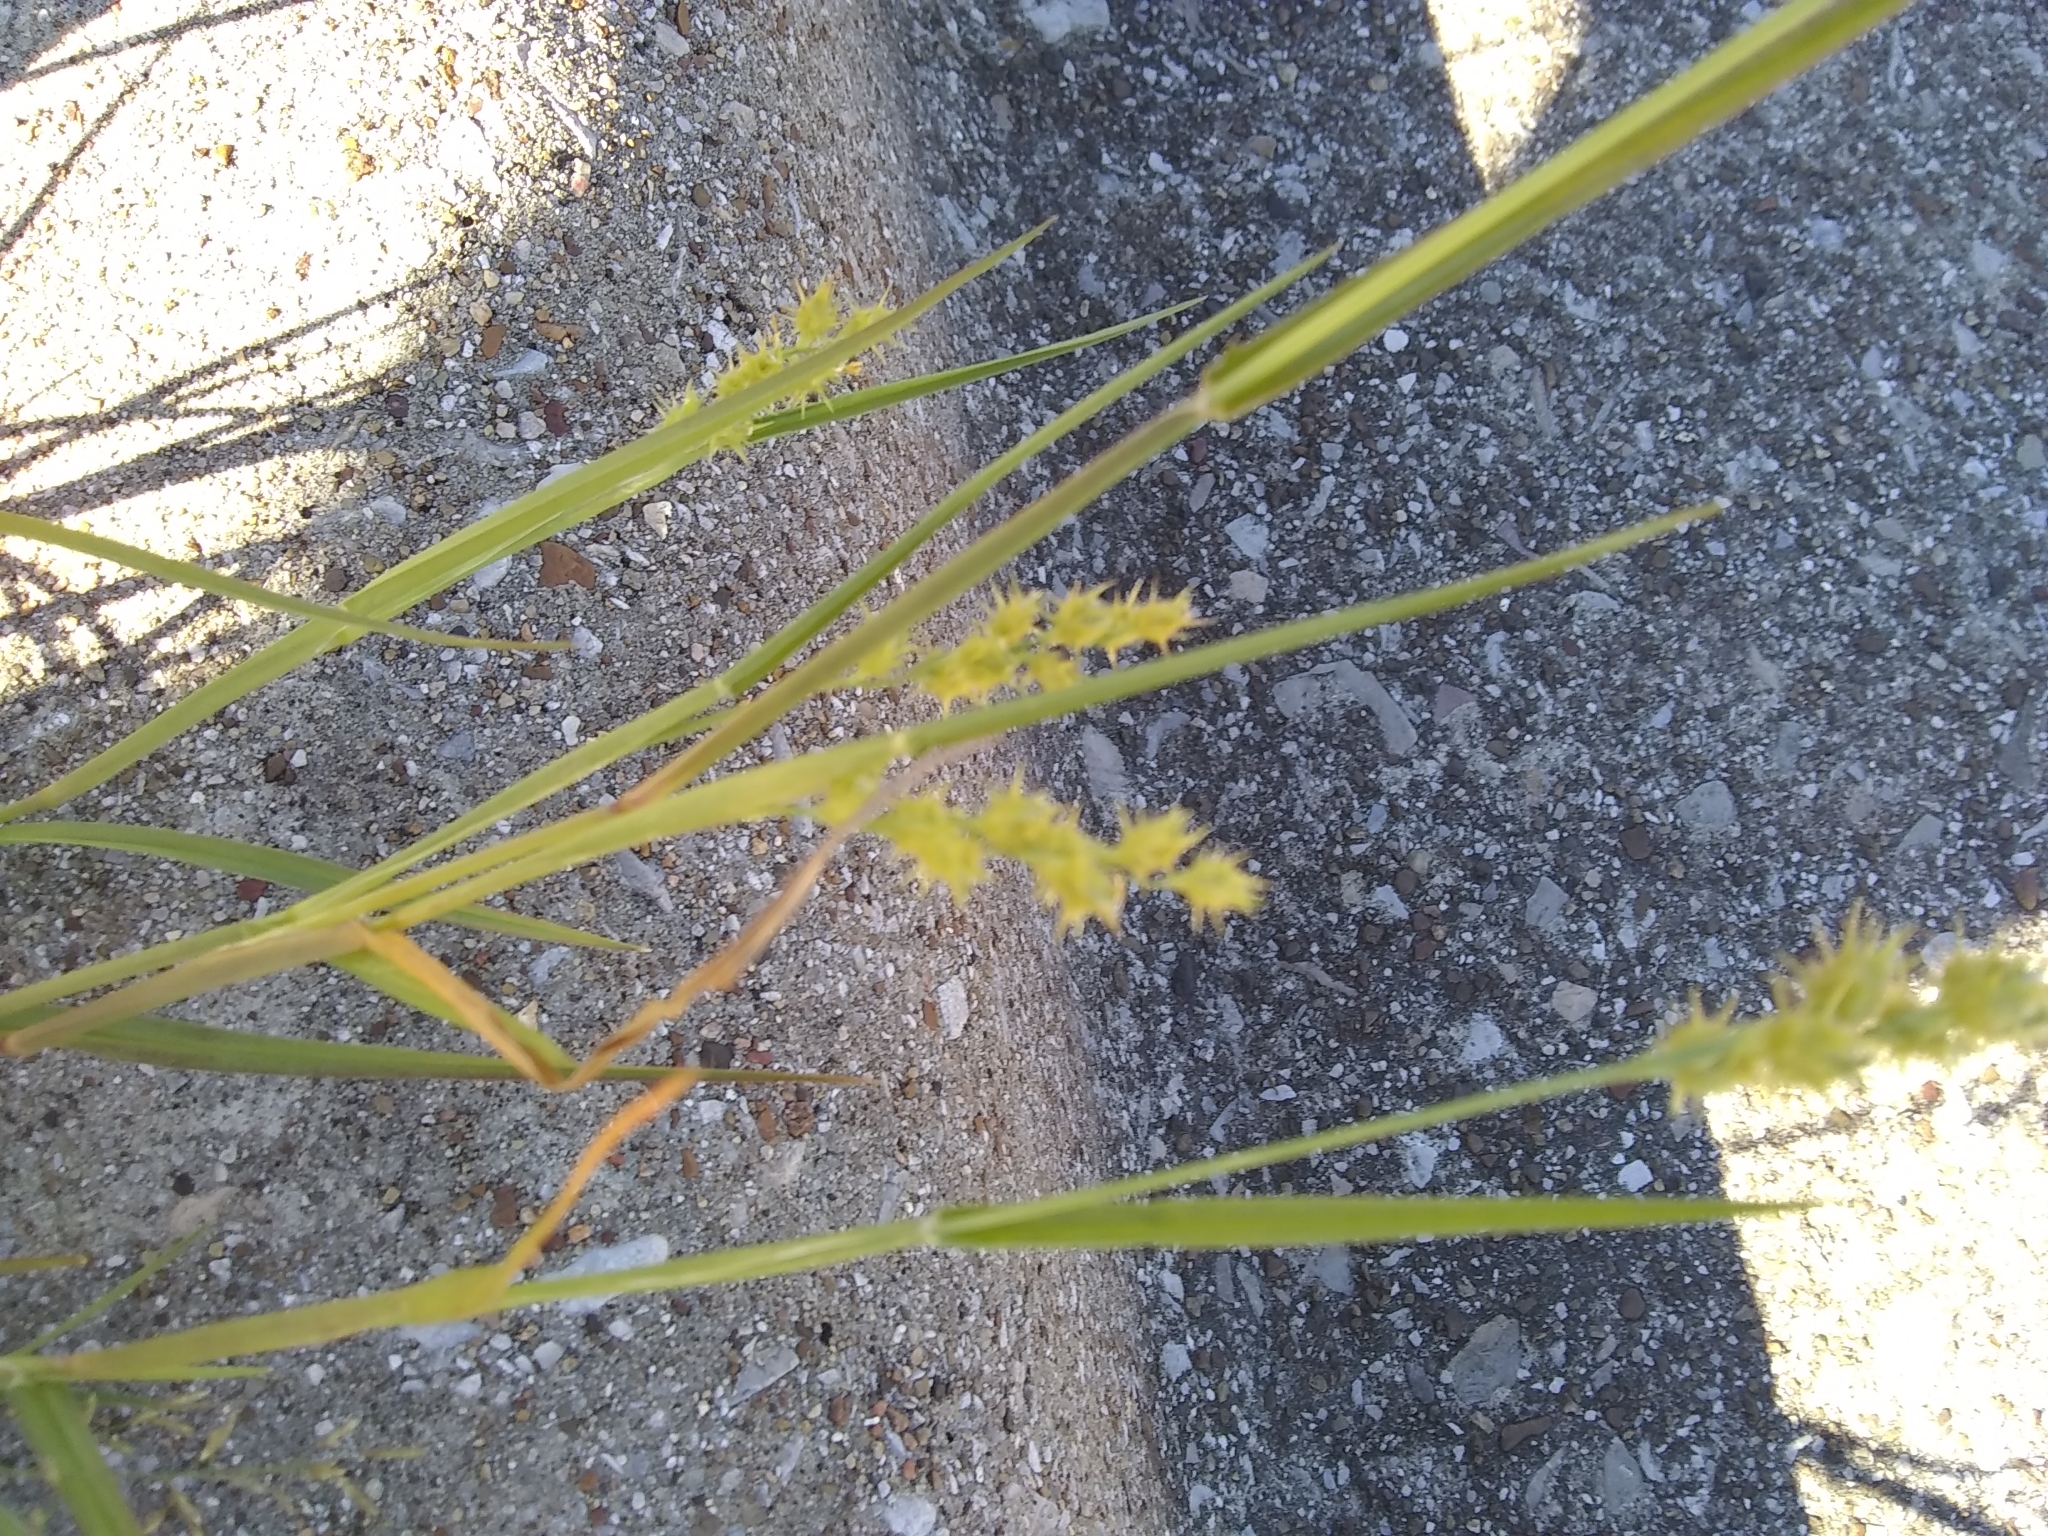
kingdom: Plantae
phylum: Tracheophyta
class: Liliopsida
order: Poales
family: Poaceae
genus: Cenchrus
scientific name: Cenchrus spinifex
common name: Coast sandbur
